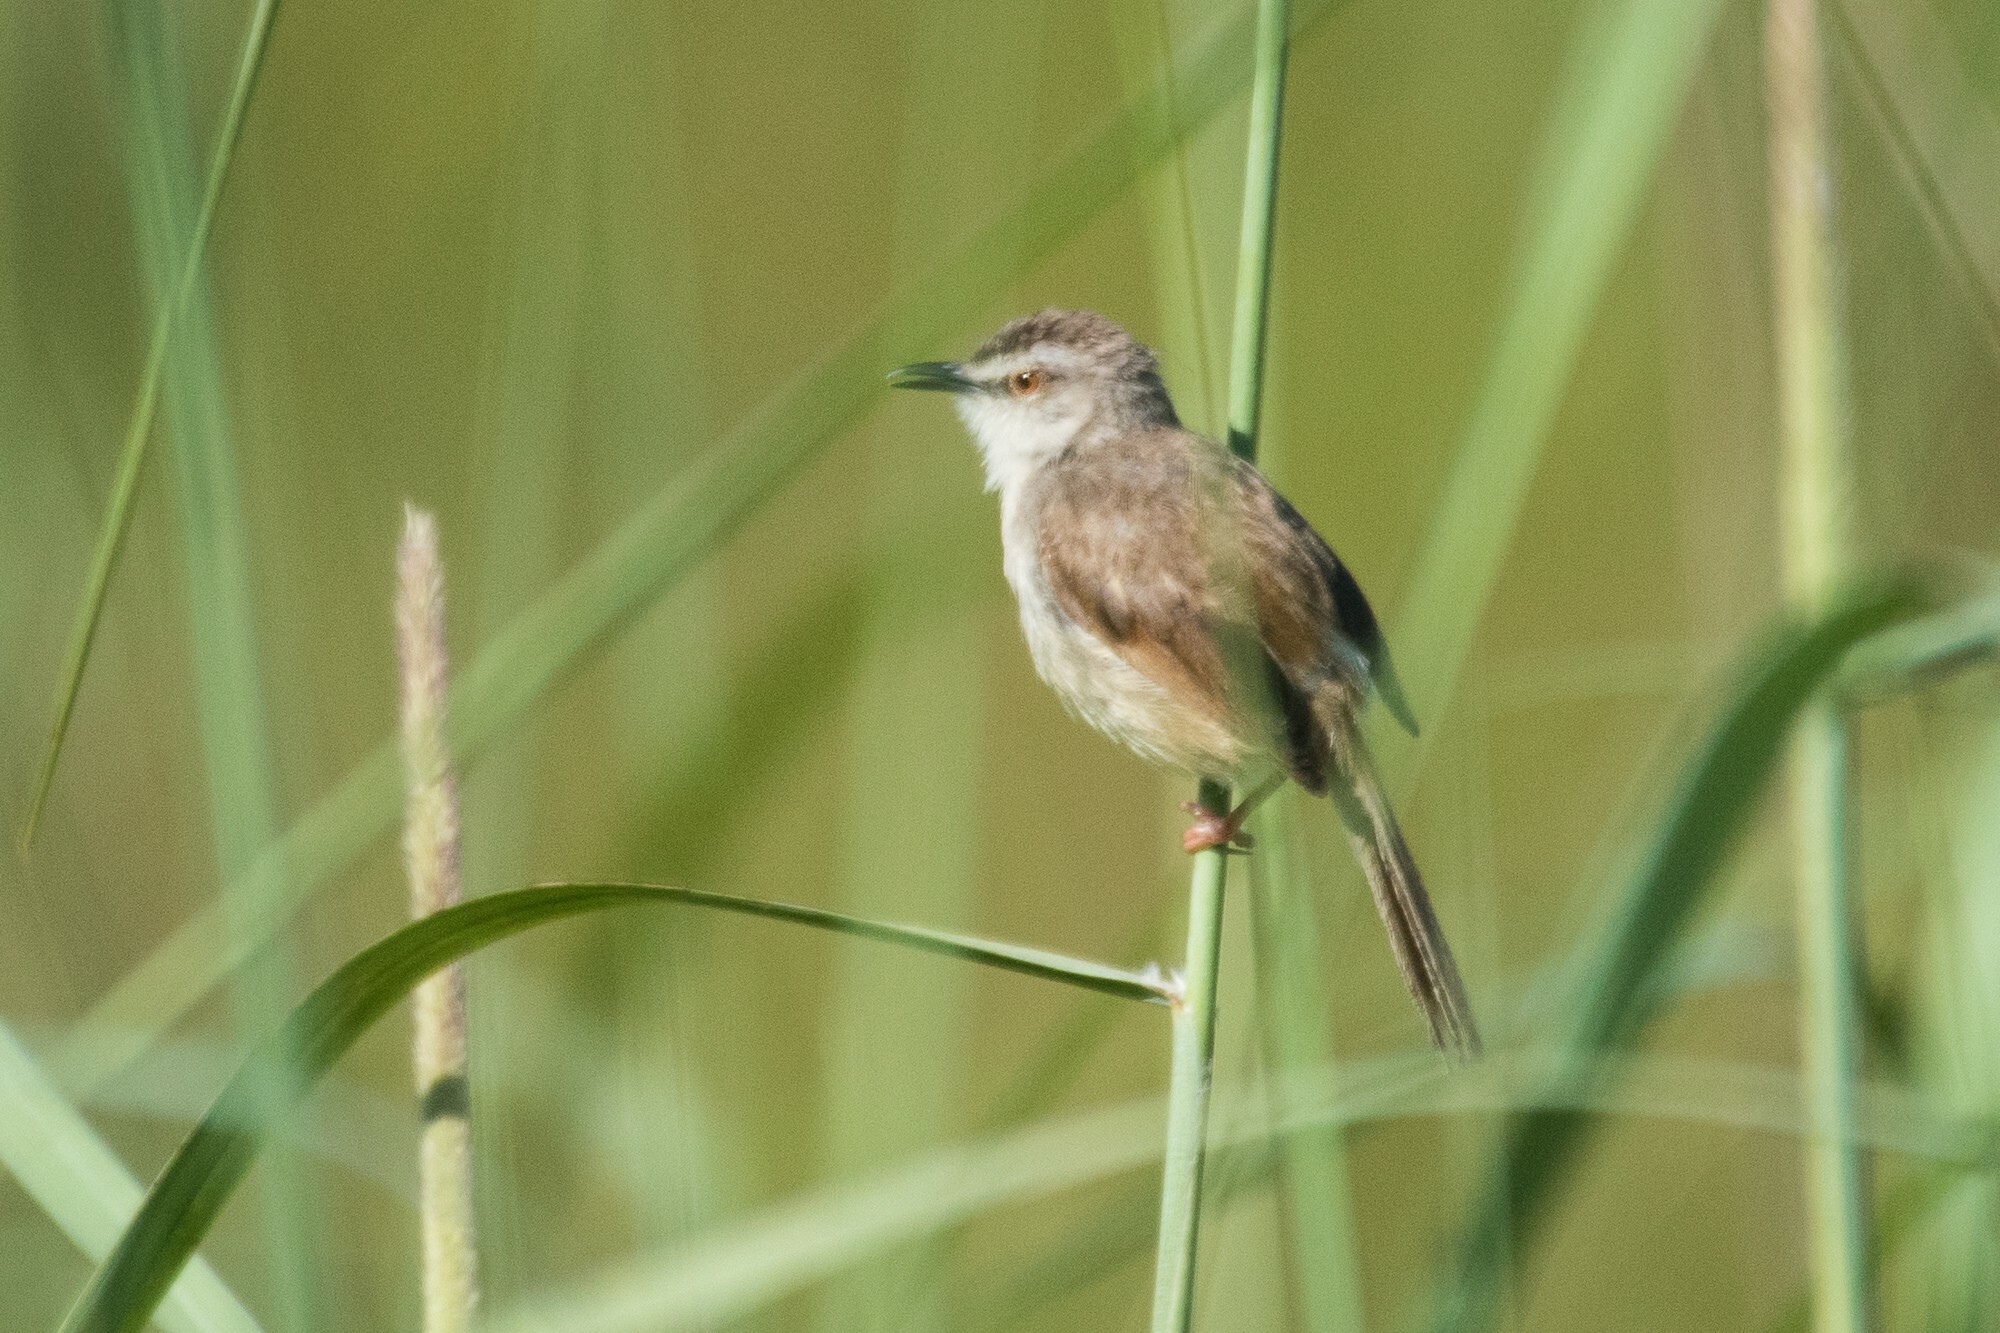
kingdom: Animalia
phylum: Chordata
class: Aves
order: Passeriformes
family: Cisticolidae
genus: Prinia
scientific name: Prinia subflava
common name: Tawny-flanked prinia
